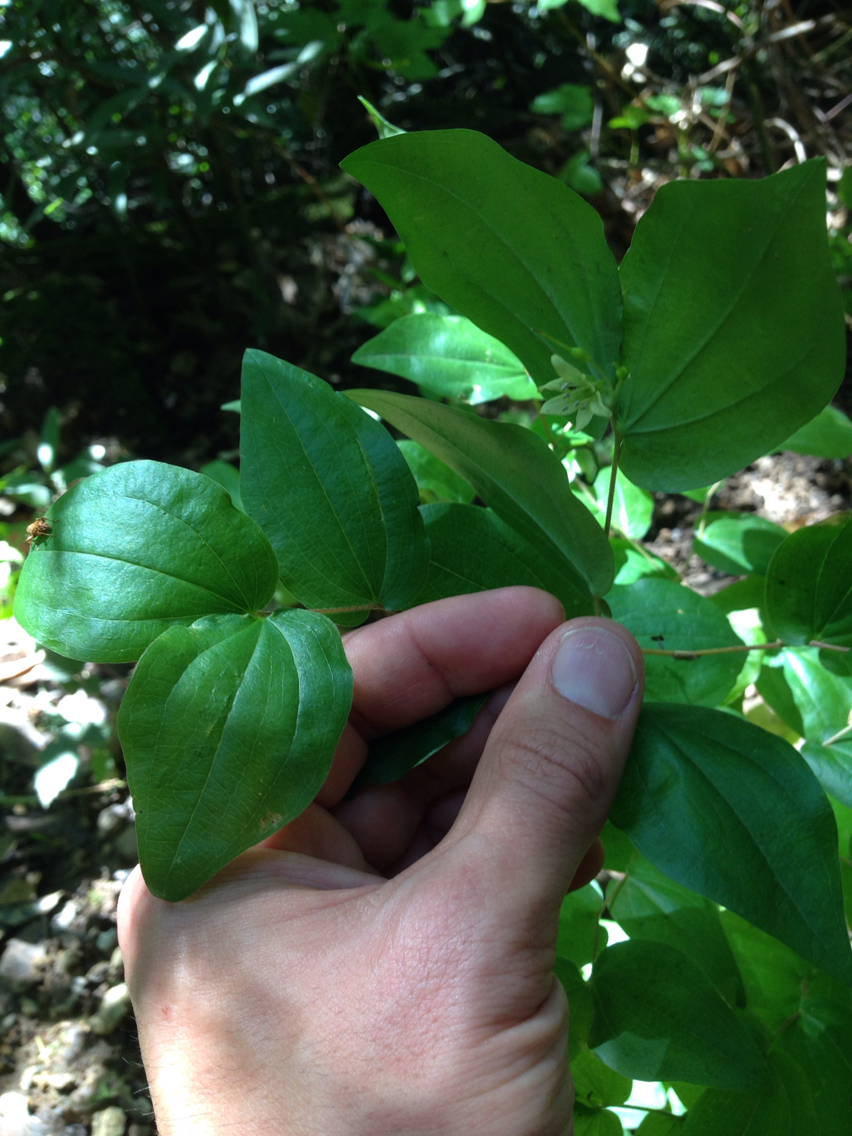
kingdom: Plantae
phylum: Tracheophyta
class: Liliopsida
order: Liliales
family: Liliaceae
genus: Prosartes
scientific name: Prosartes hookeri
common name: Fairy-bells
